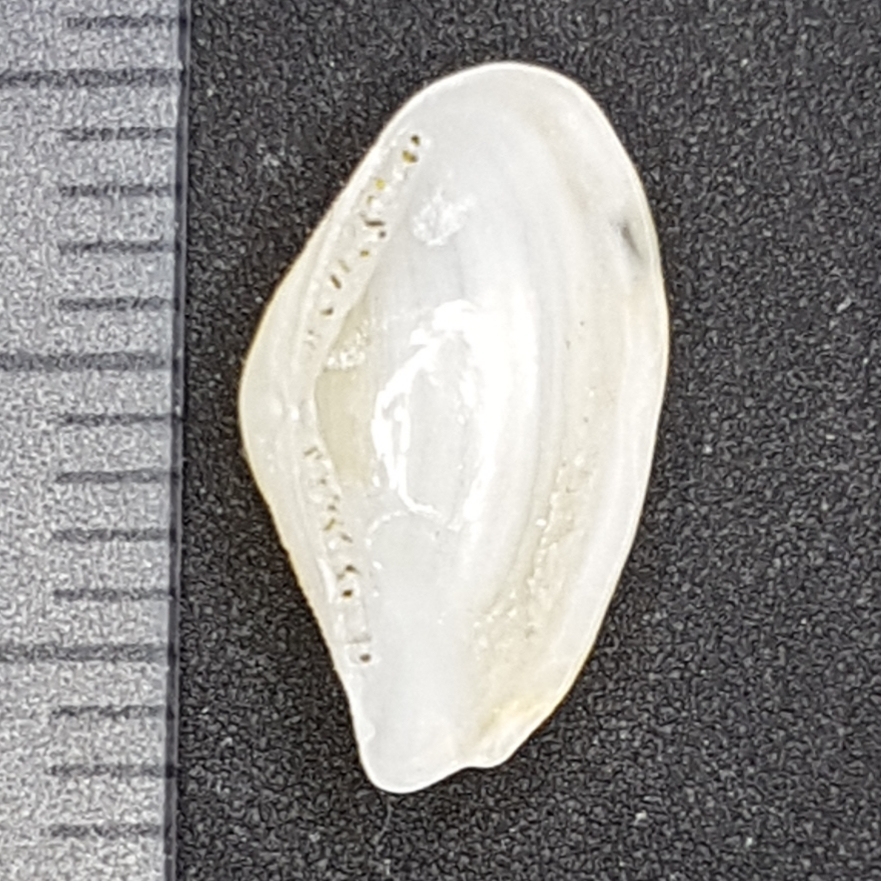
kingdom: Animalia
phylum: Mollusca
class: Bivalvia
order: Nuculanida
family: Nuculanidae
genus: Lembulus
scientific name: Lembulus pella
